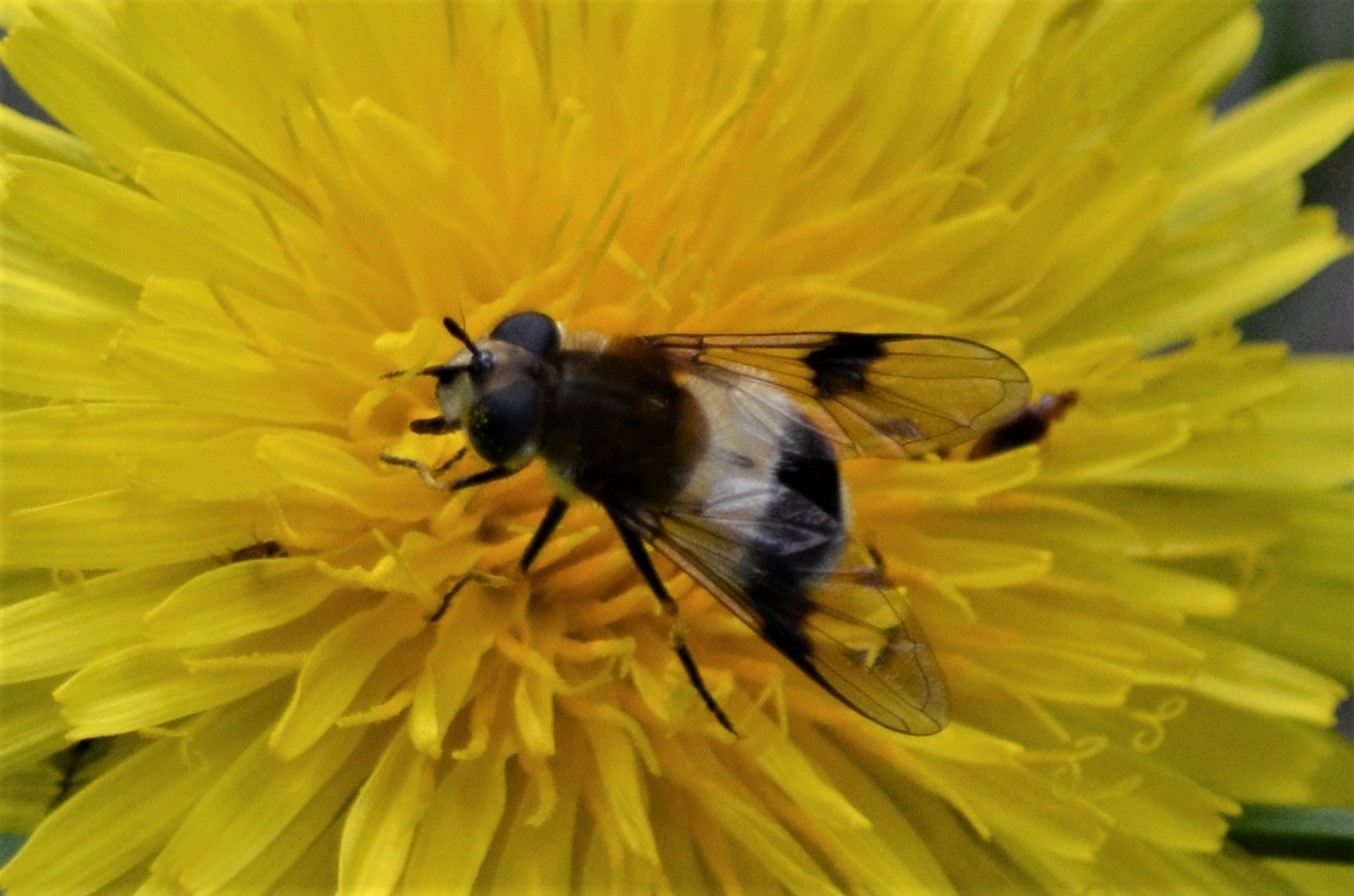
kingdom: Animalia
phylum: Arthropoda
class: Insecta
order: Diptera
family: Syrphidae
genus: Leucozona
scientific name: Leucozona lucorum
